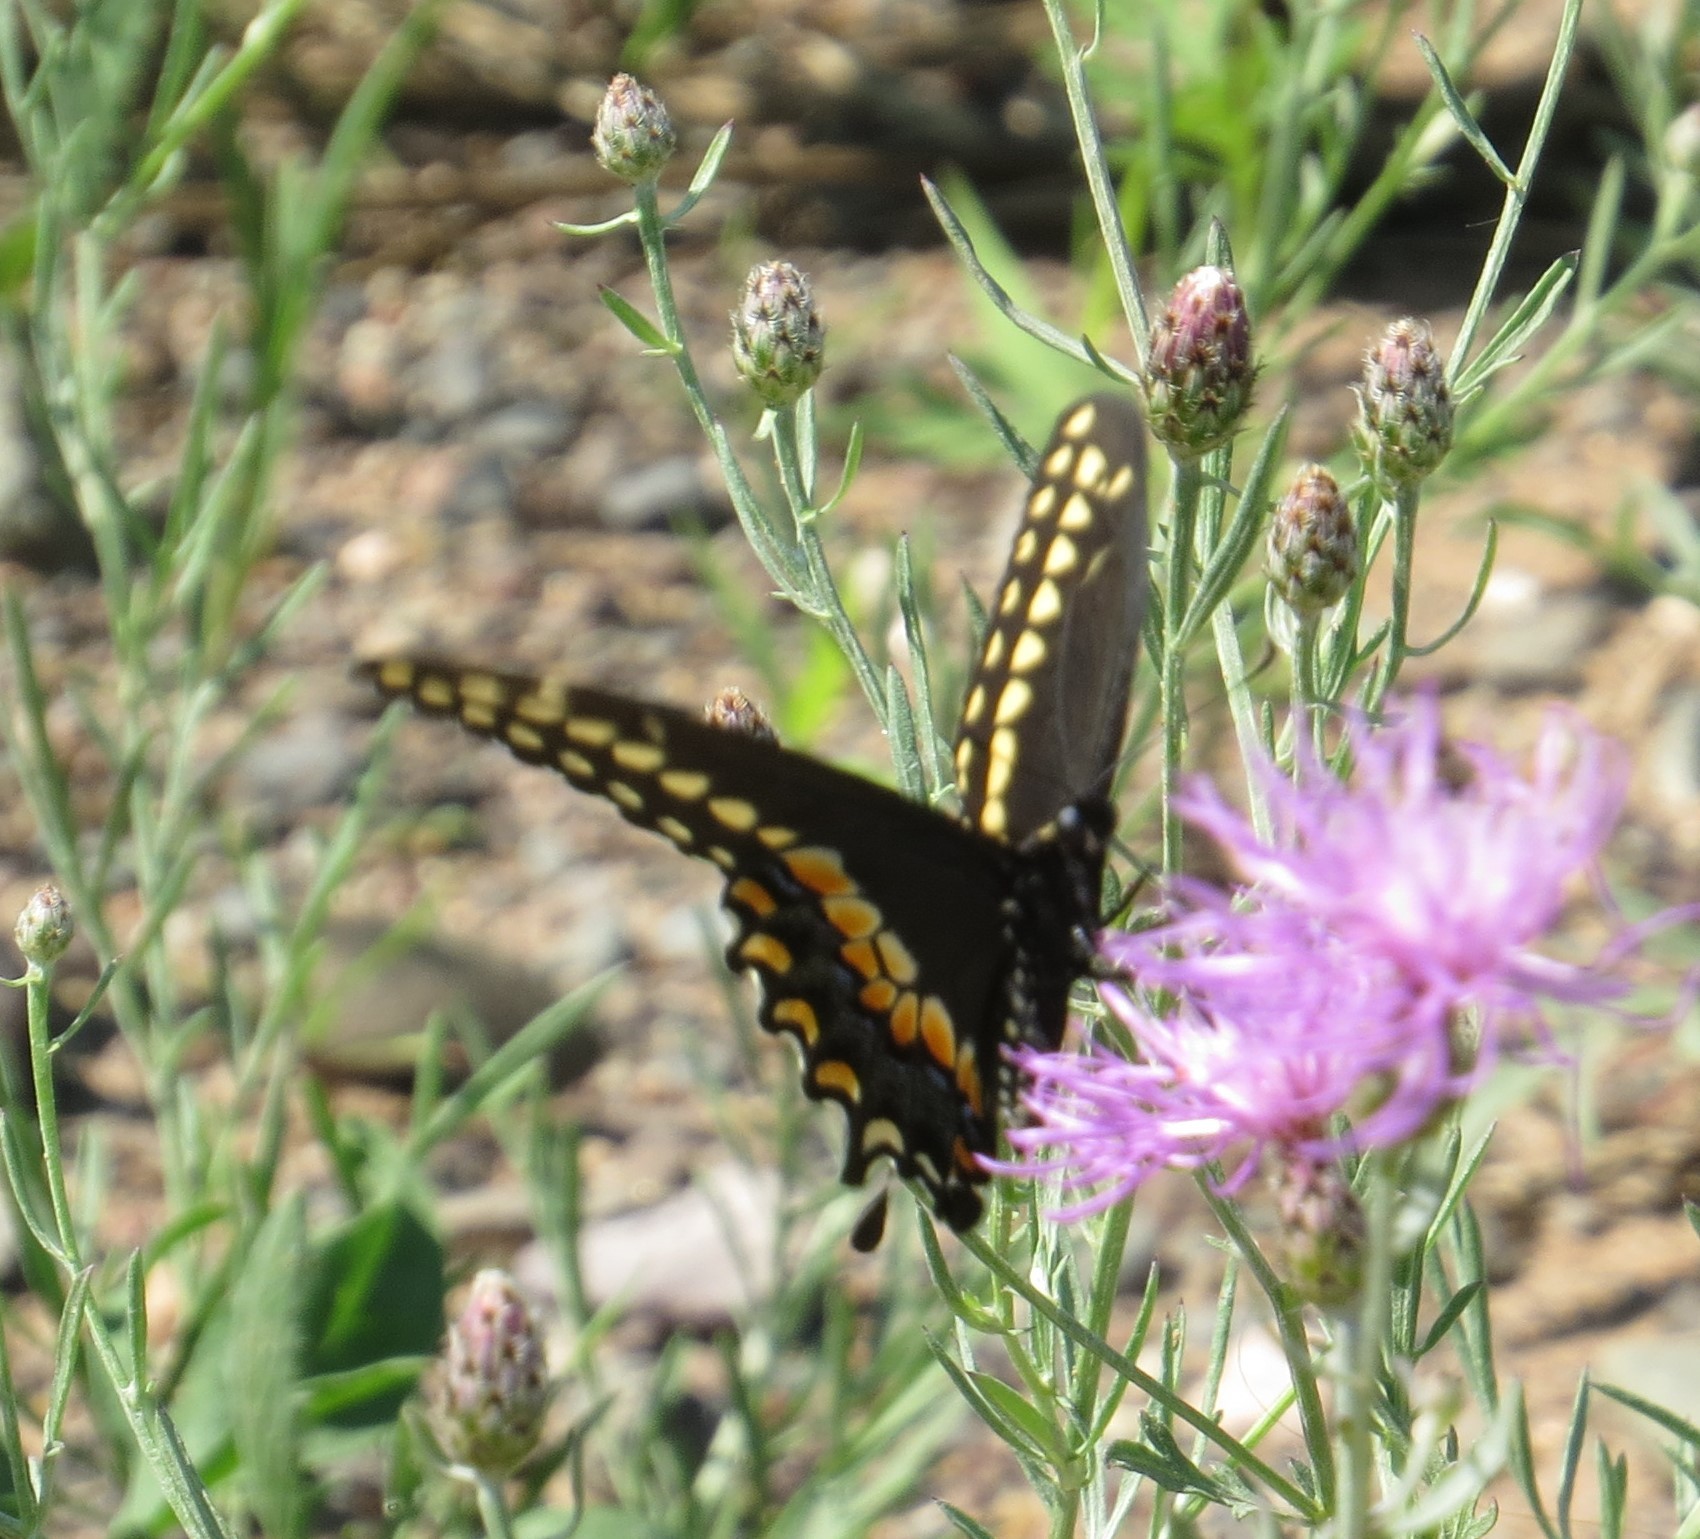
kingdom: Animalia
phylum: Arthropoda
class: Insecta
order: Lepidoptera
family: Papilionidae
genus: Papilio
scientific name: Papilio polyxenes
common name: Black swallowtail
